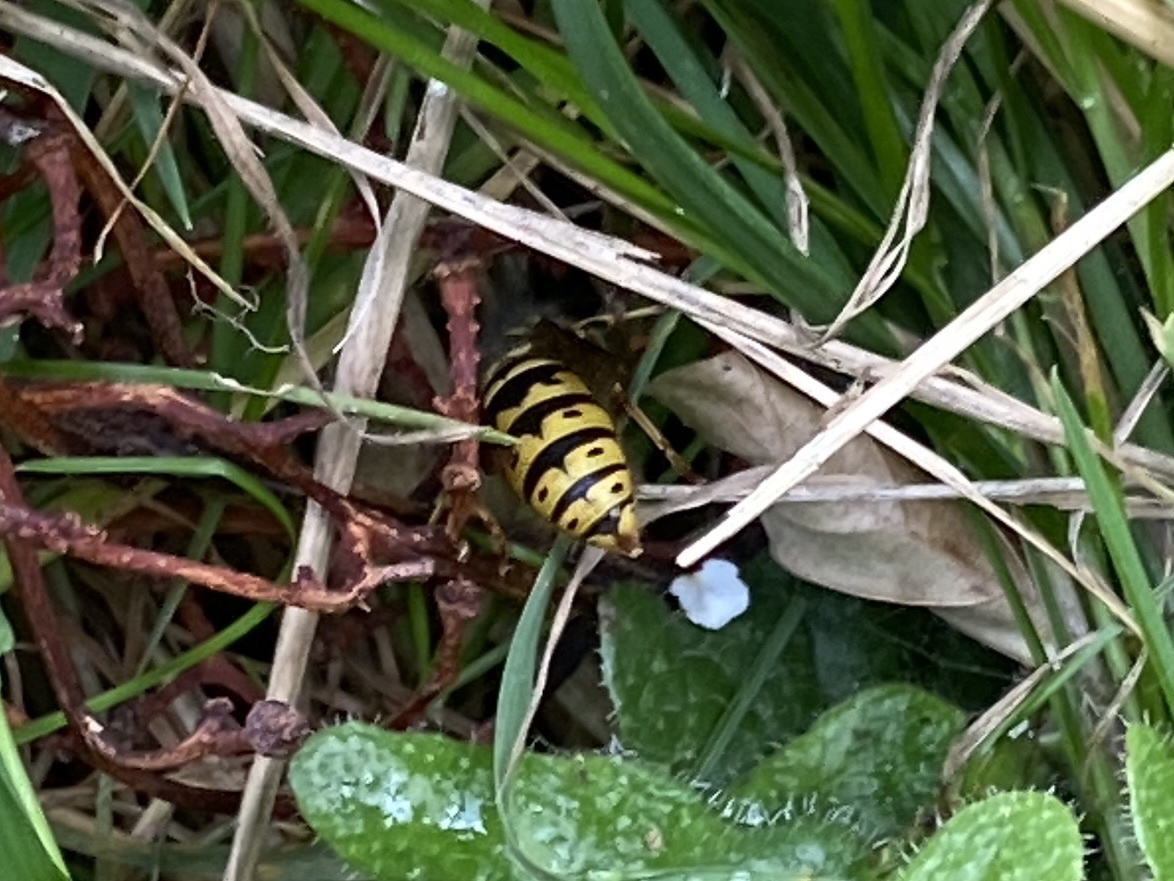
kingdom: Animalia
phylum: Arthropoda
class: Insecta
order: Hymenoptera
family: Vespidae
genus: Vespula
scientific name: Vespula vulgaris
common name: Common wasp
